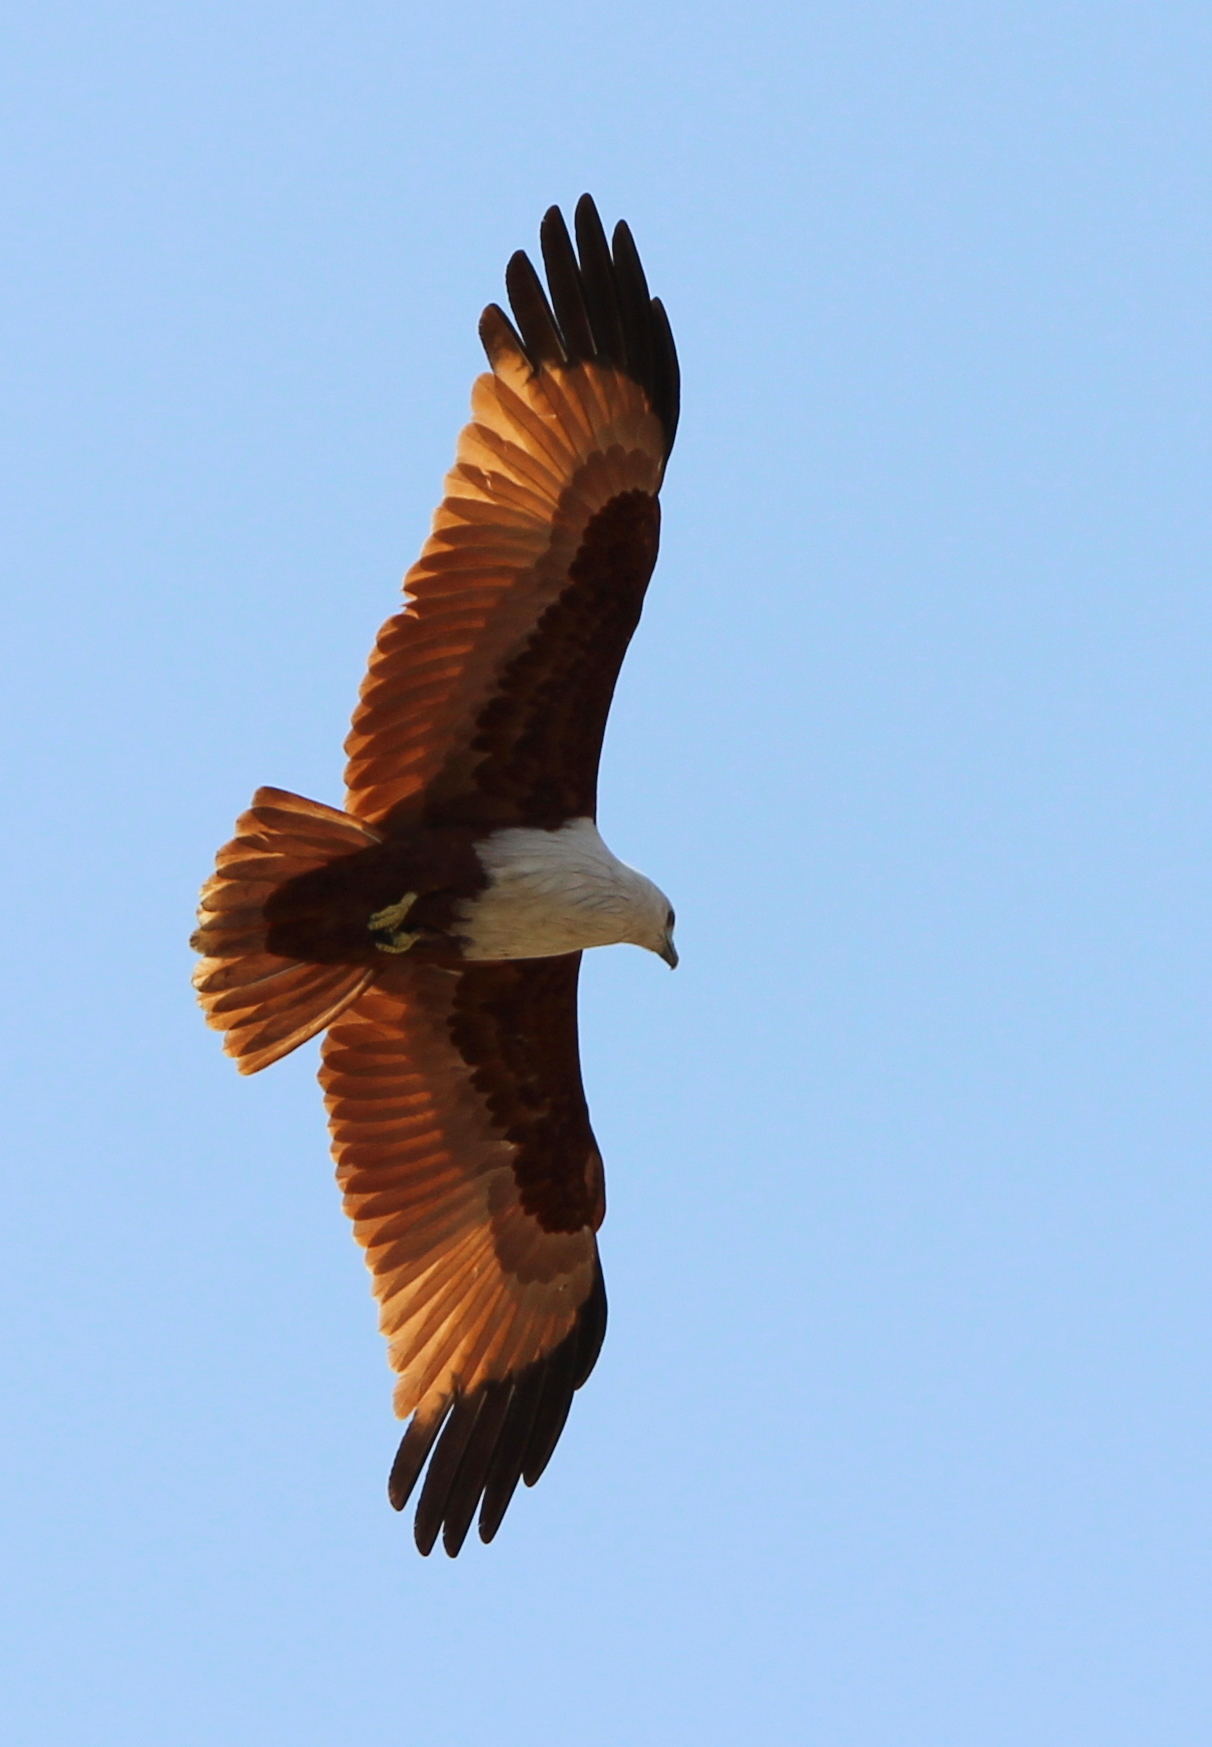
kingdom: Animalia
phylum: Chordata
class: Aves
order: Accipitriformes
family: Accipitridae
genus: Haliastur
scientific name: Haliastur indus
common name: Brahminy kite
